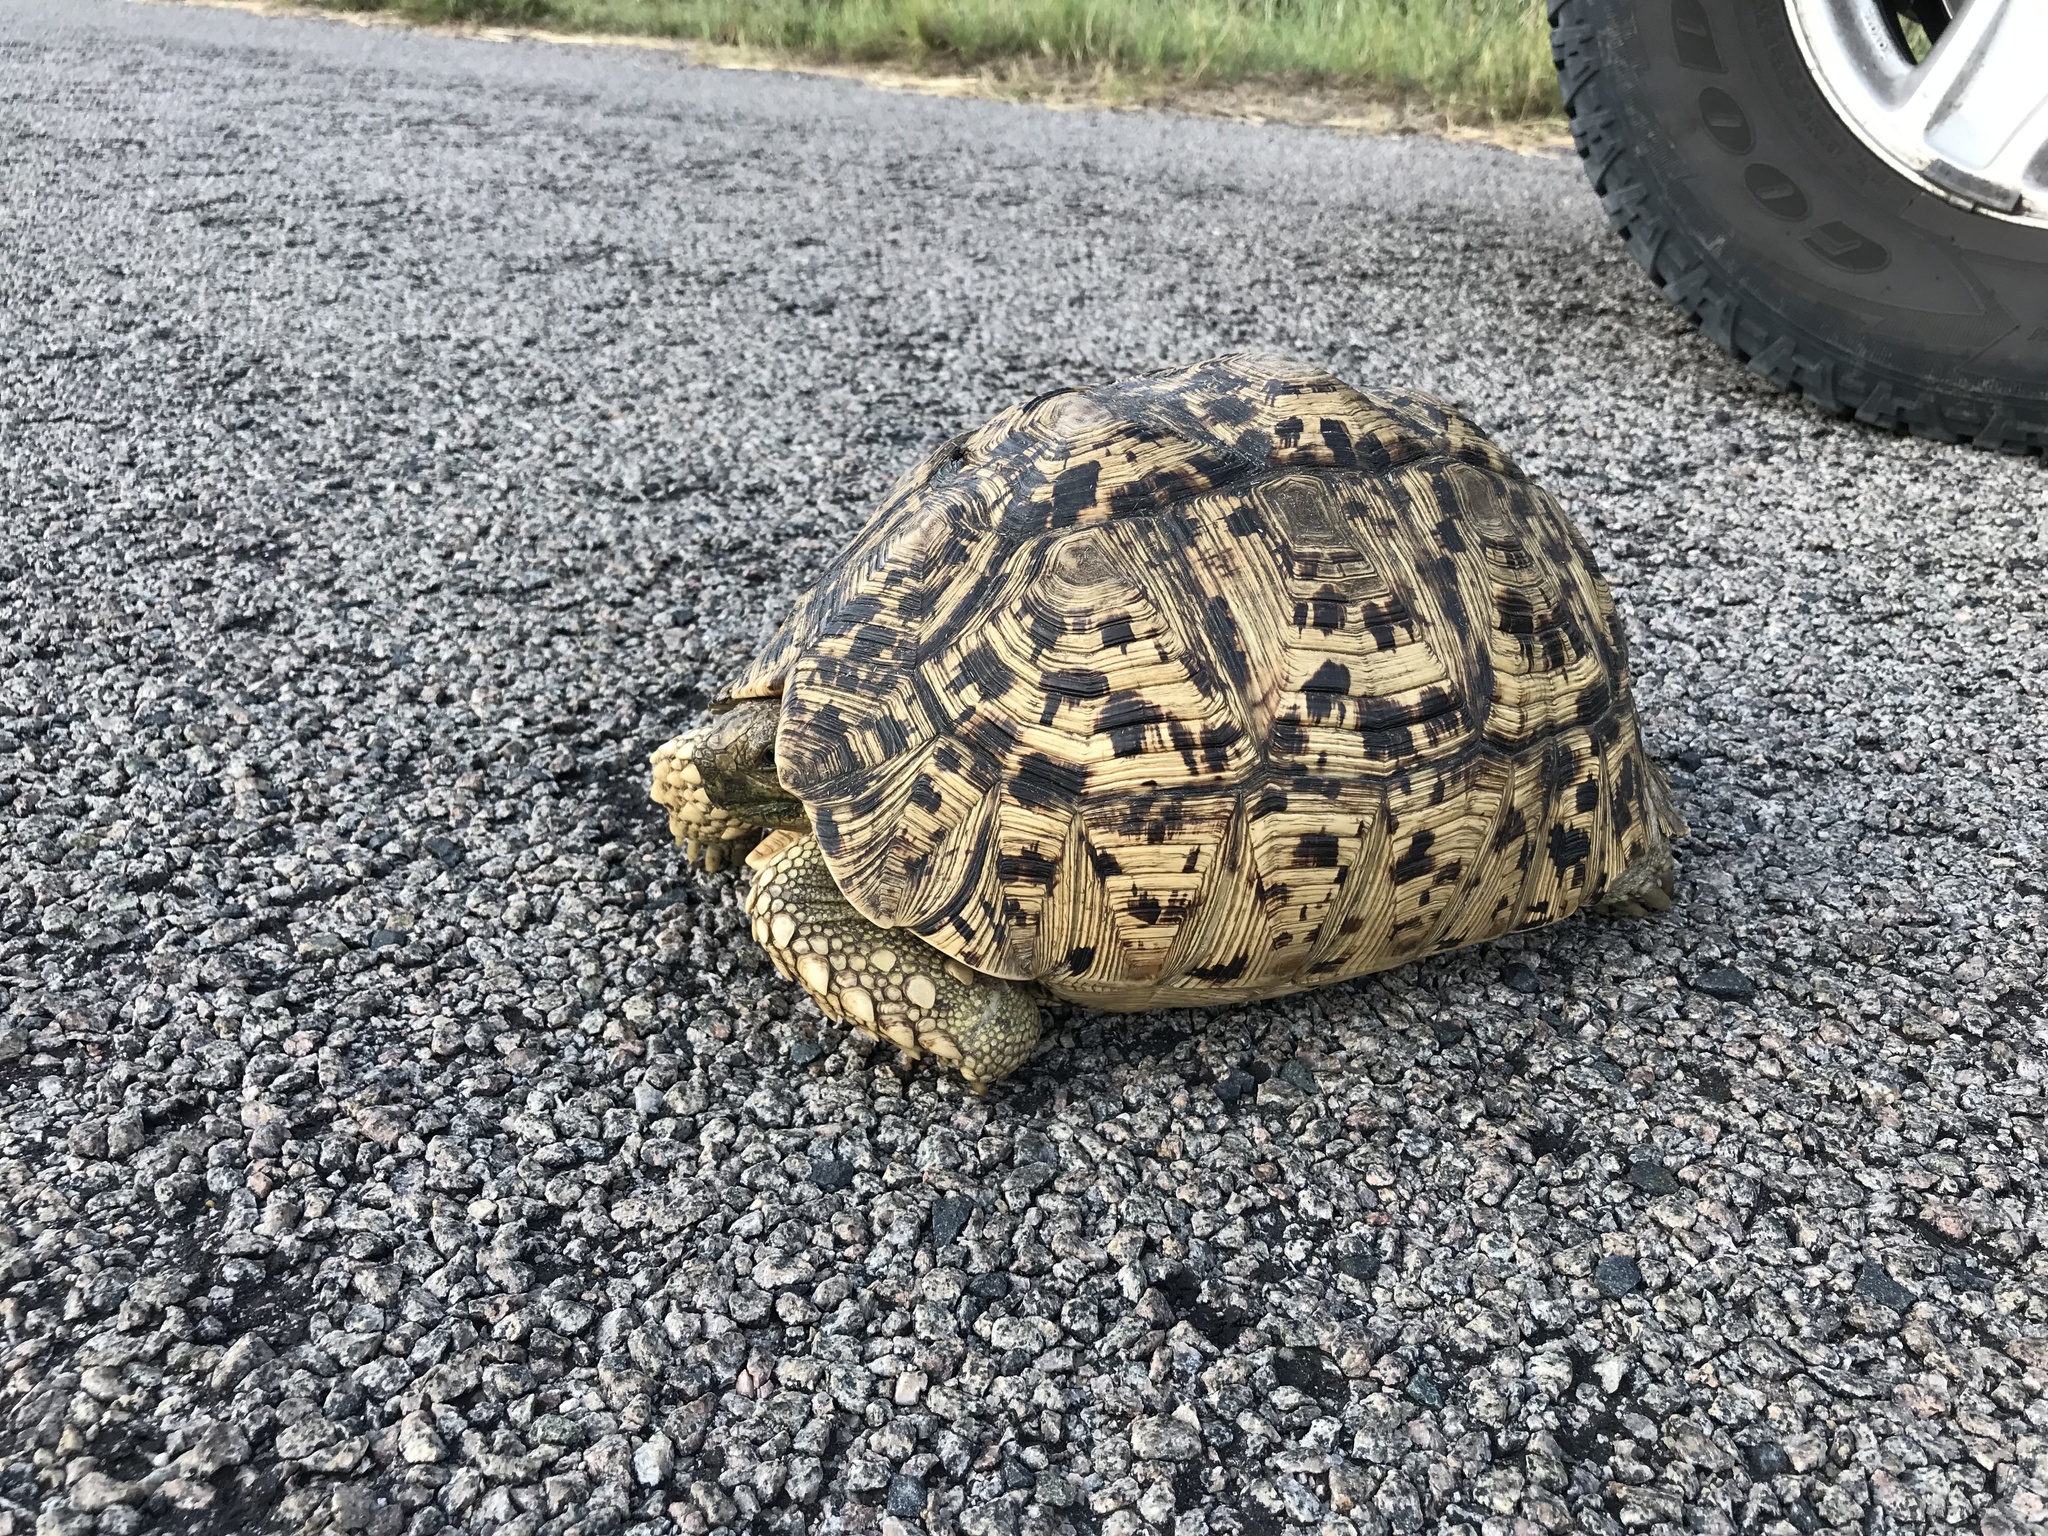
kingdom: Animalia
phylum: Chordata
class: Testudines
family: Testudinidae
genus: Stigmochelys
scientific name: Stigmochelys pardalis
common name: Leopard tortoise
